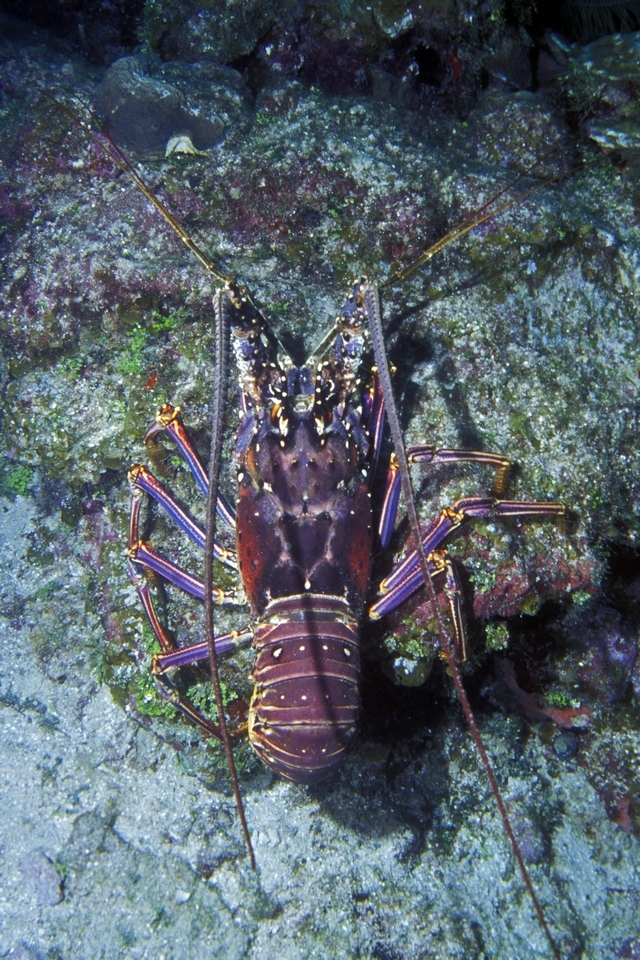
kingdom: Animalia
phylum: Arthropoda
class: Malacostraca
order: Decapoda
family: Palinuridae
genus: Panulirus
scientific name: Panulirus argus
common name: Caribbean spiny lobster
